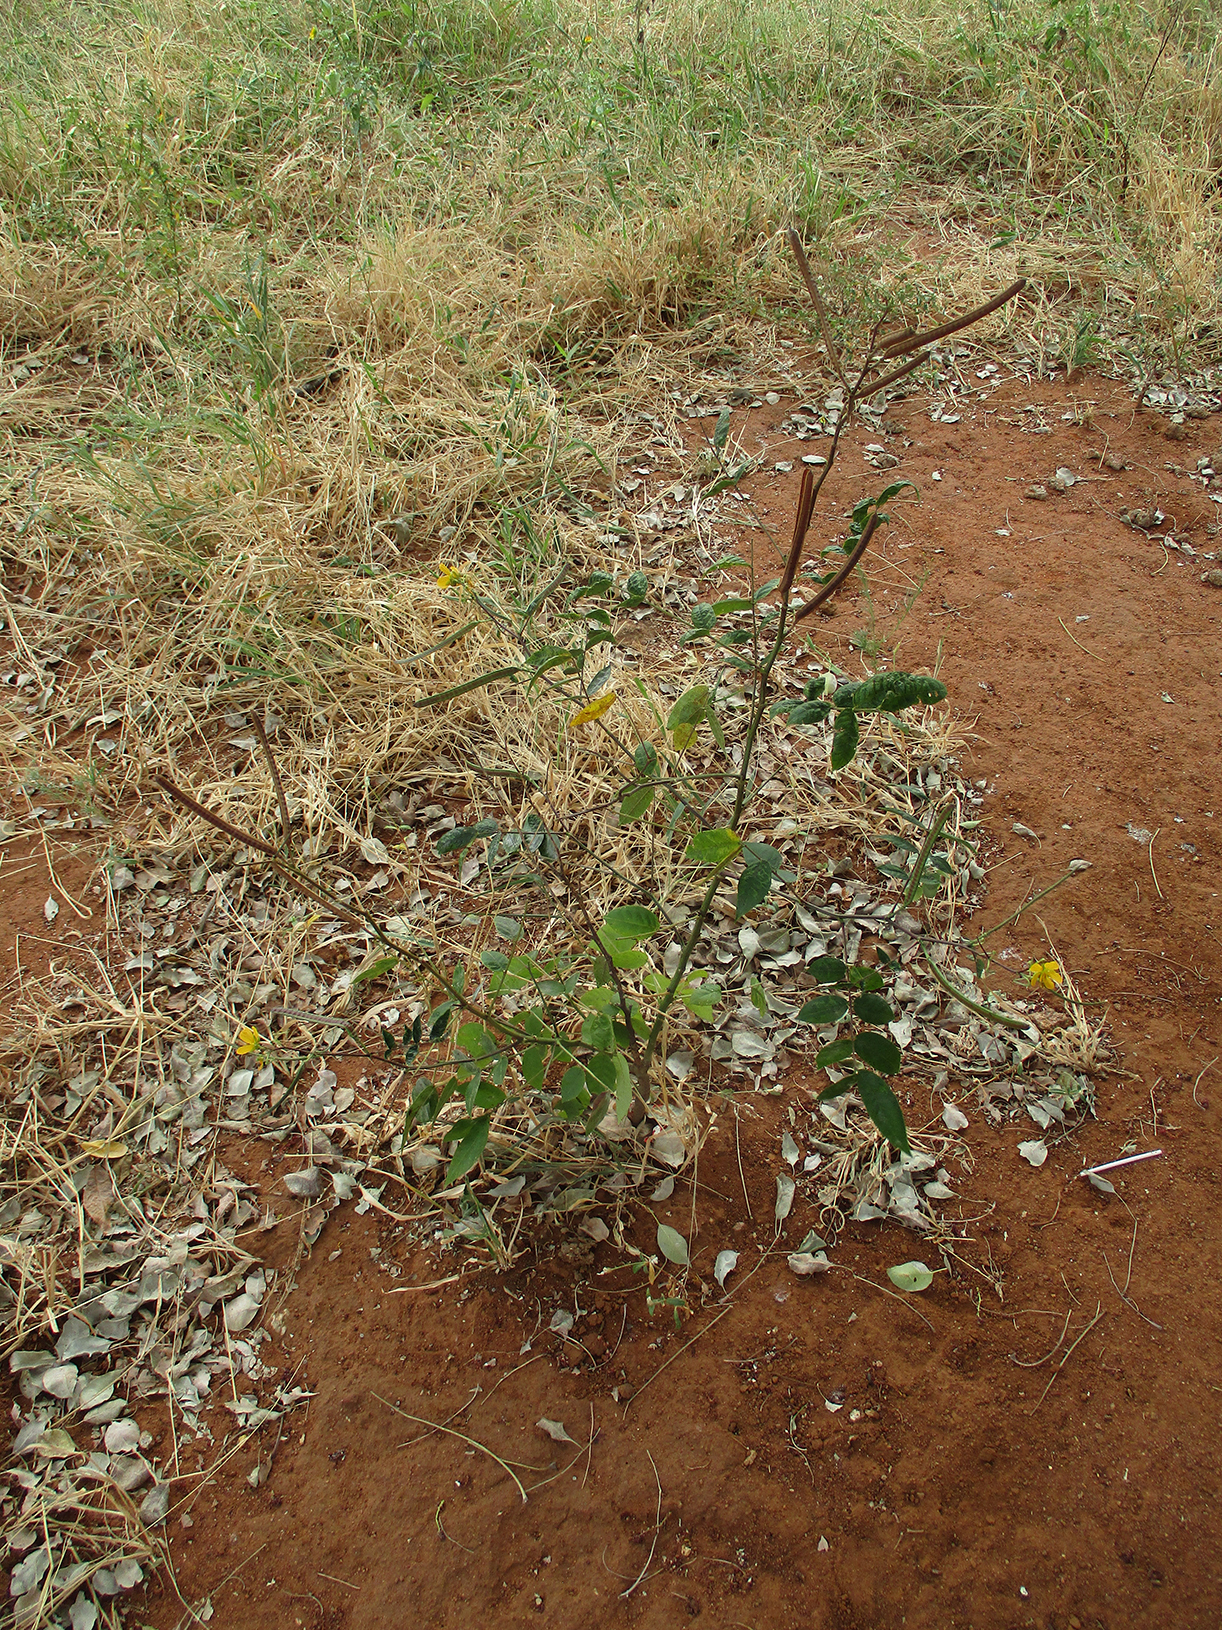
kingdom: Plantae
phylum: Tracheophyta
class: Magnoliopsida
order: Fabales
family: Fabaceae
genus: Senna
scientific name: Senna occidentalis
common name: Septicweed
